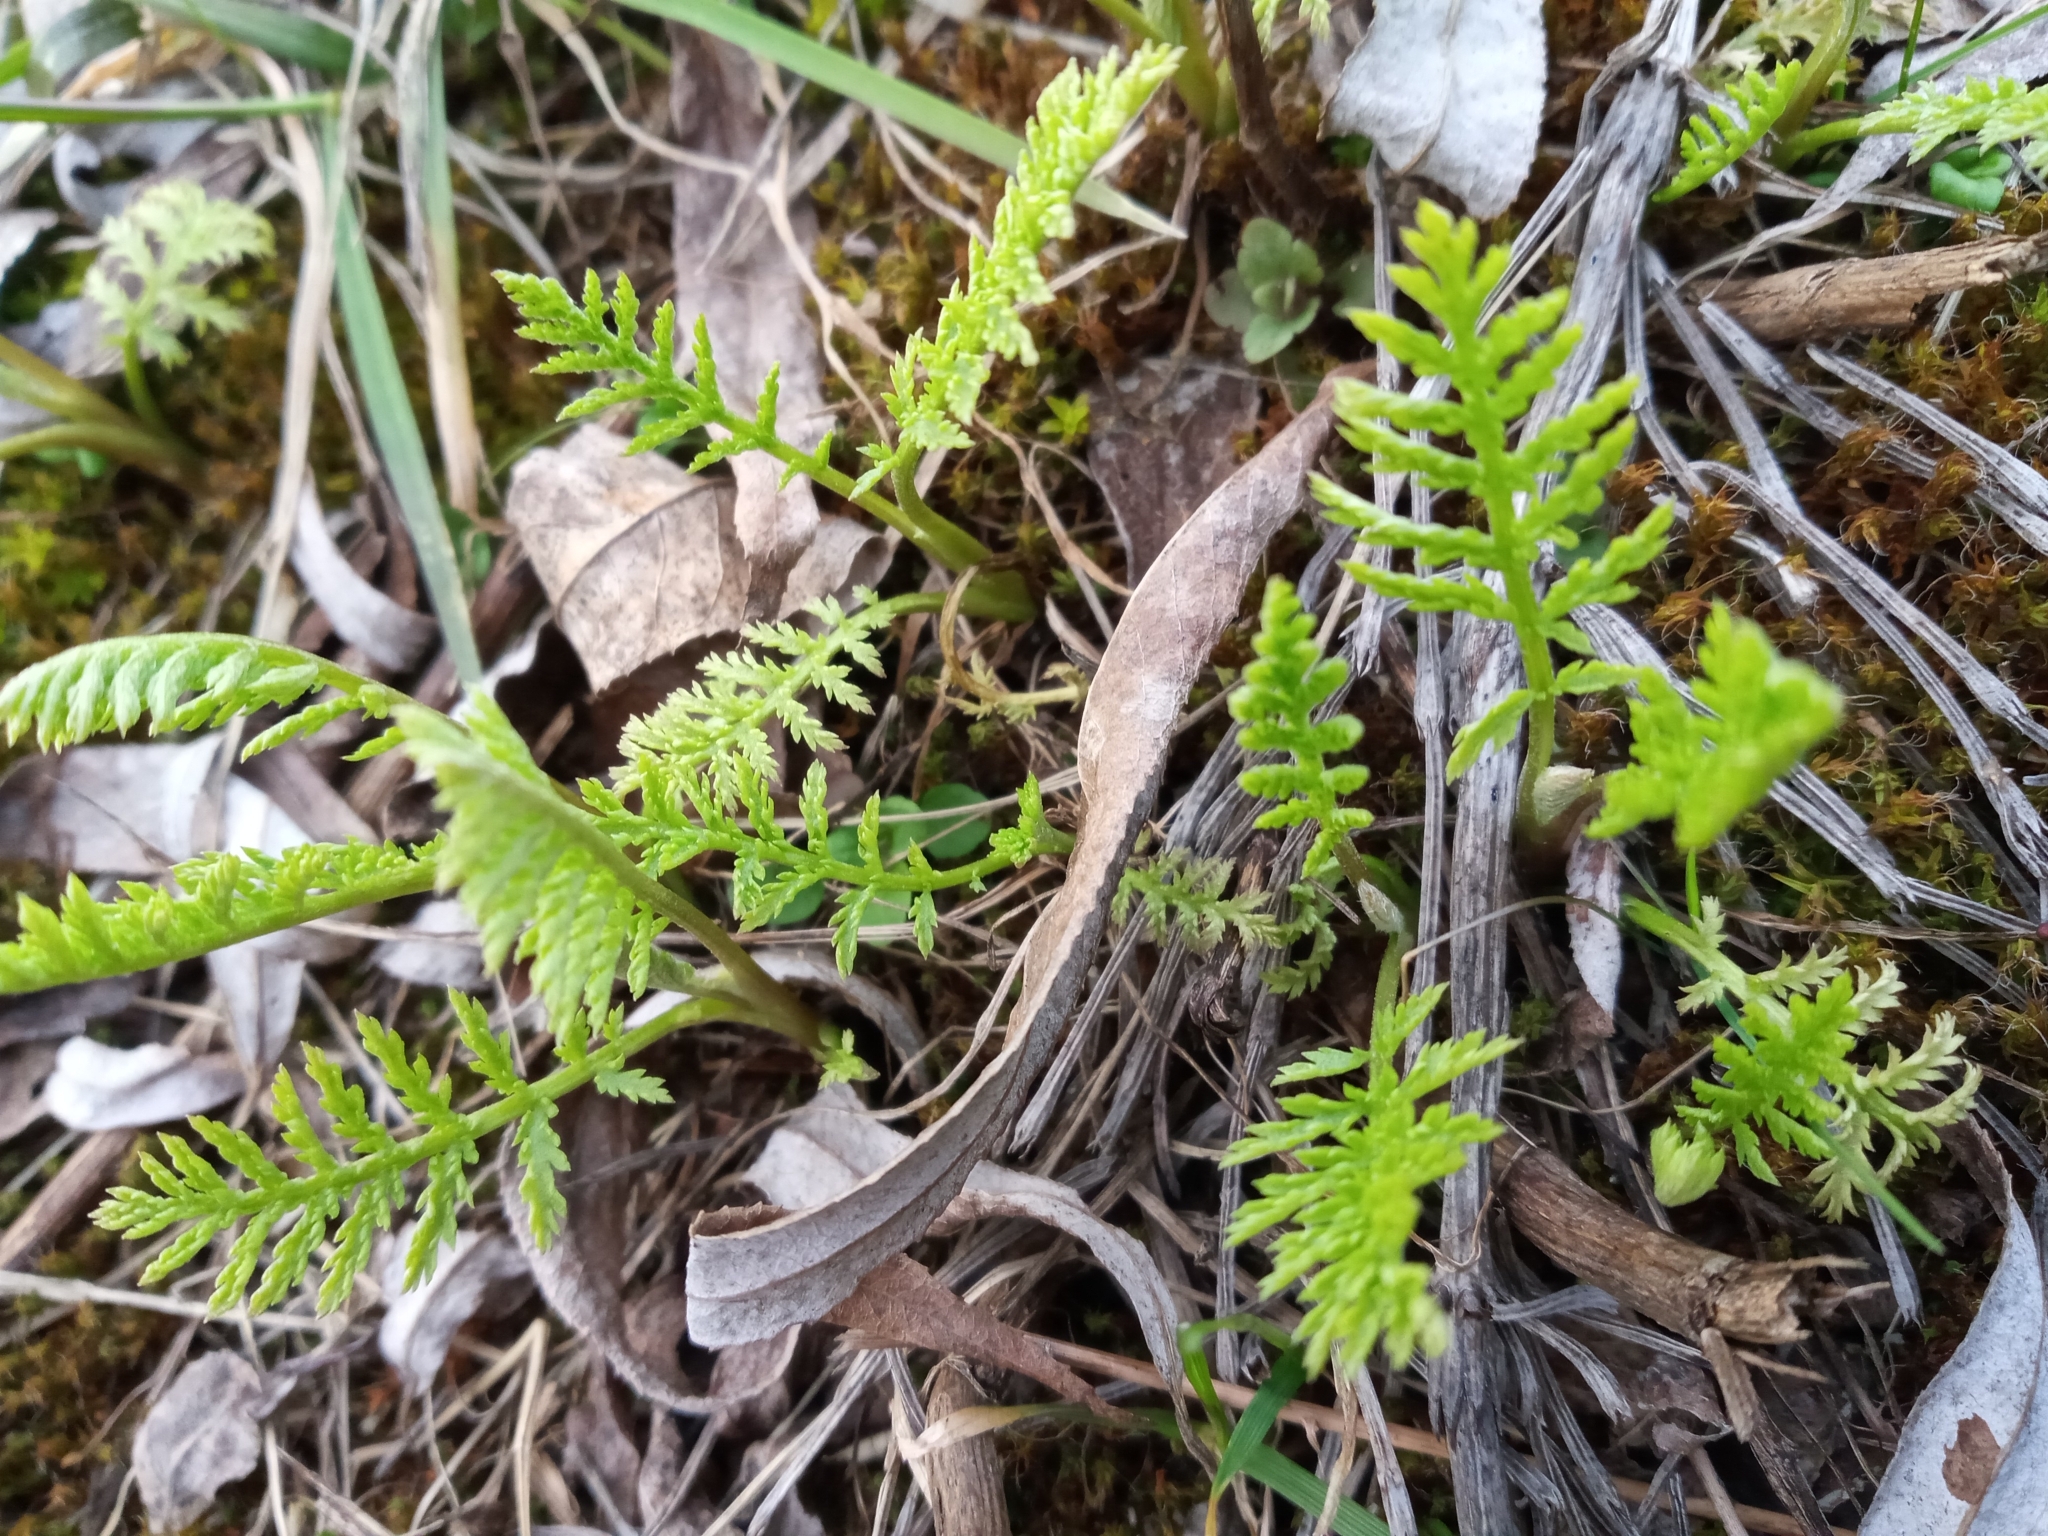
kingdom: Plantae
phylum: Tracheophyta
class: Magnoliopsida
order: Asterales
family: Asteraceae
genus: Tanacetum
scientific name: Tanacetum vulgare
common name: Common tansy
